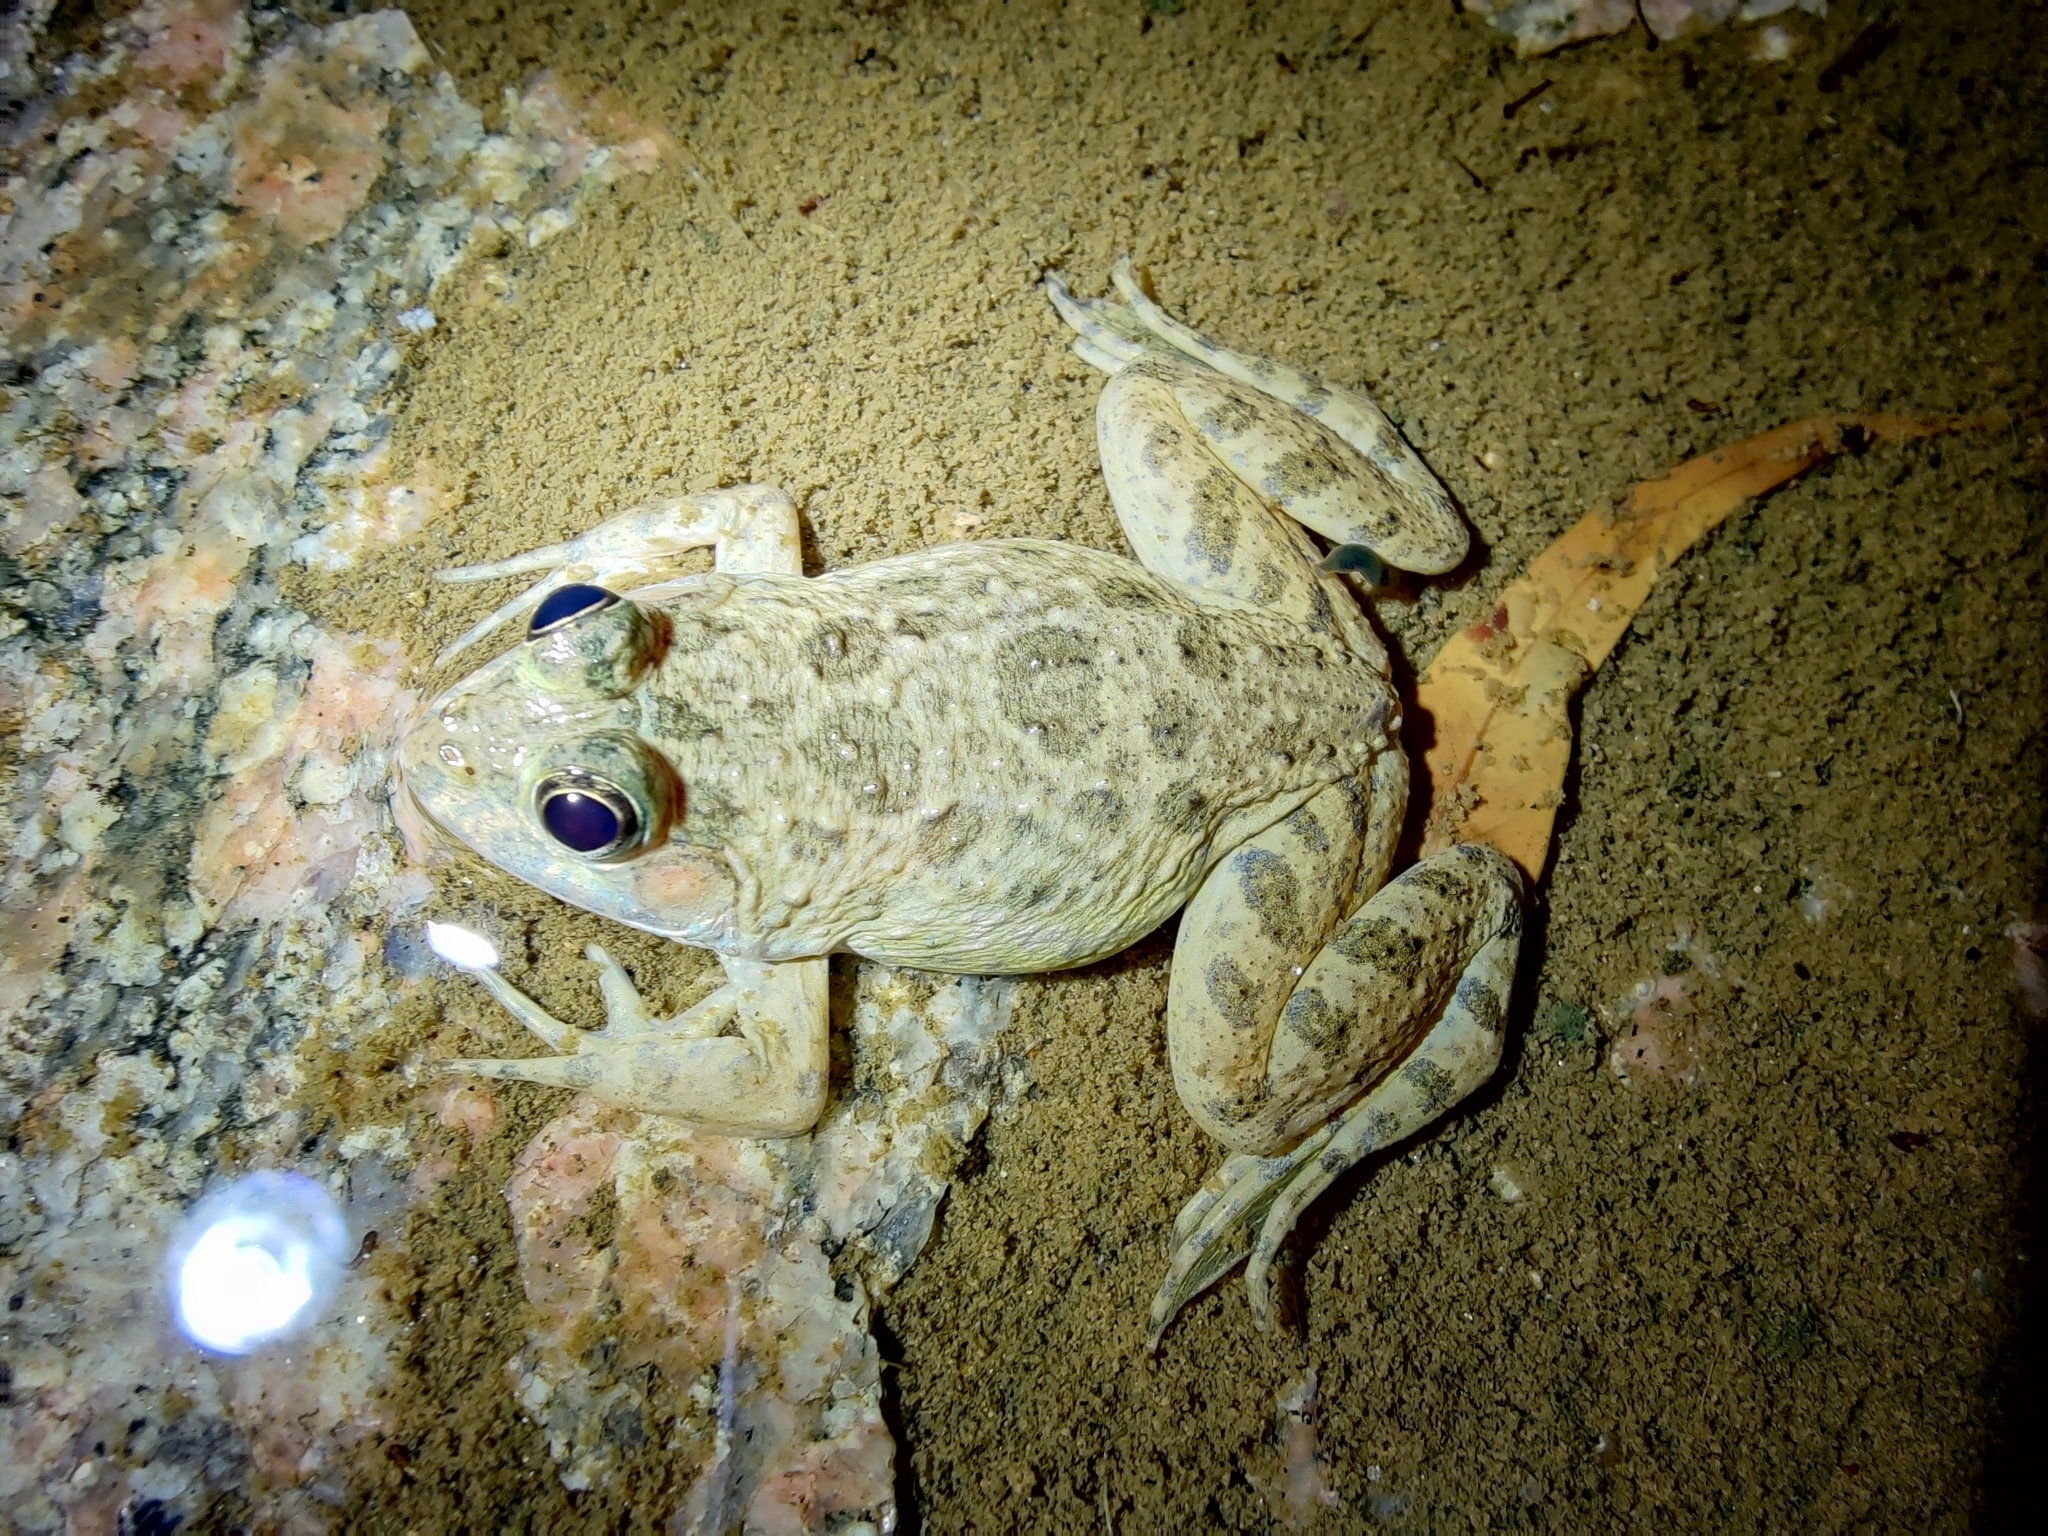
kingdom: Animalia
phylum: Chordata
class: Amphibia
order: Anura
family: Dicroglossidae
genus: Euphlyctis
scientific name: Euphlyctis cyanophlyctis
